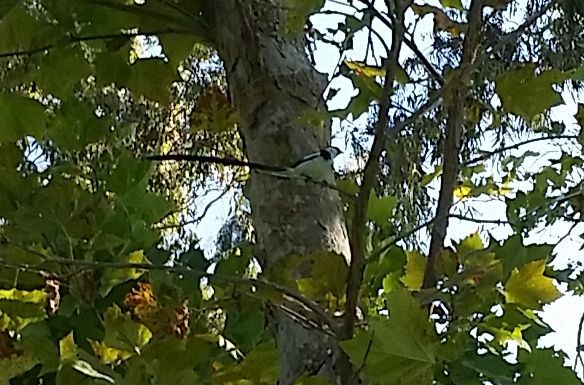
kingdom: Animalia
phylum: Chordata
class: Aves
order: Passeriformes
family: Viduidae
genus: Vidua
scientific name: Vidua macroura
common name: Pin-tailed whydah
